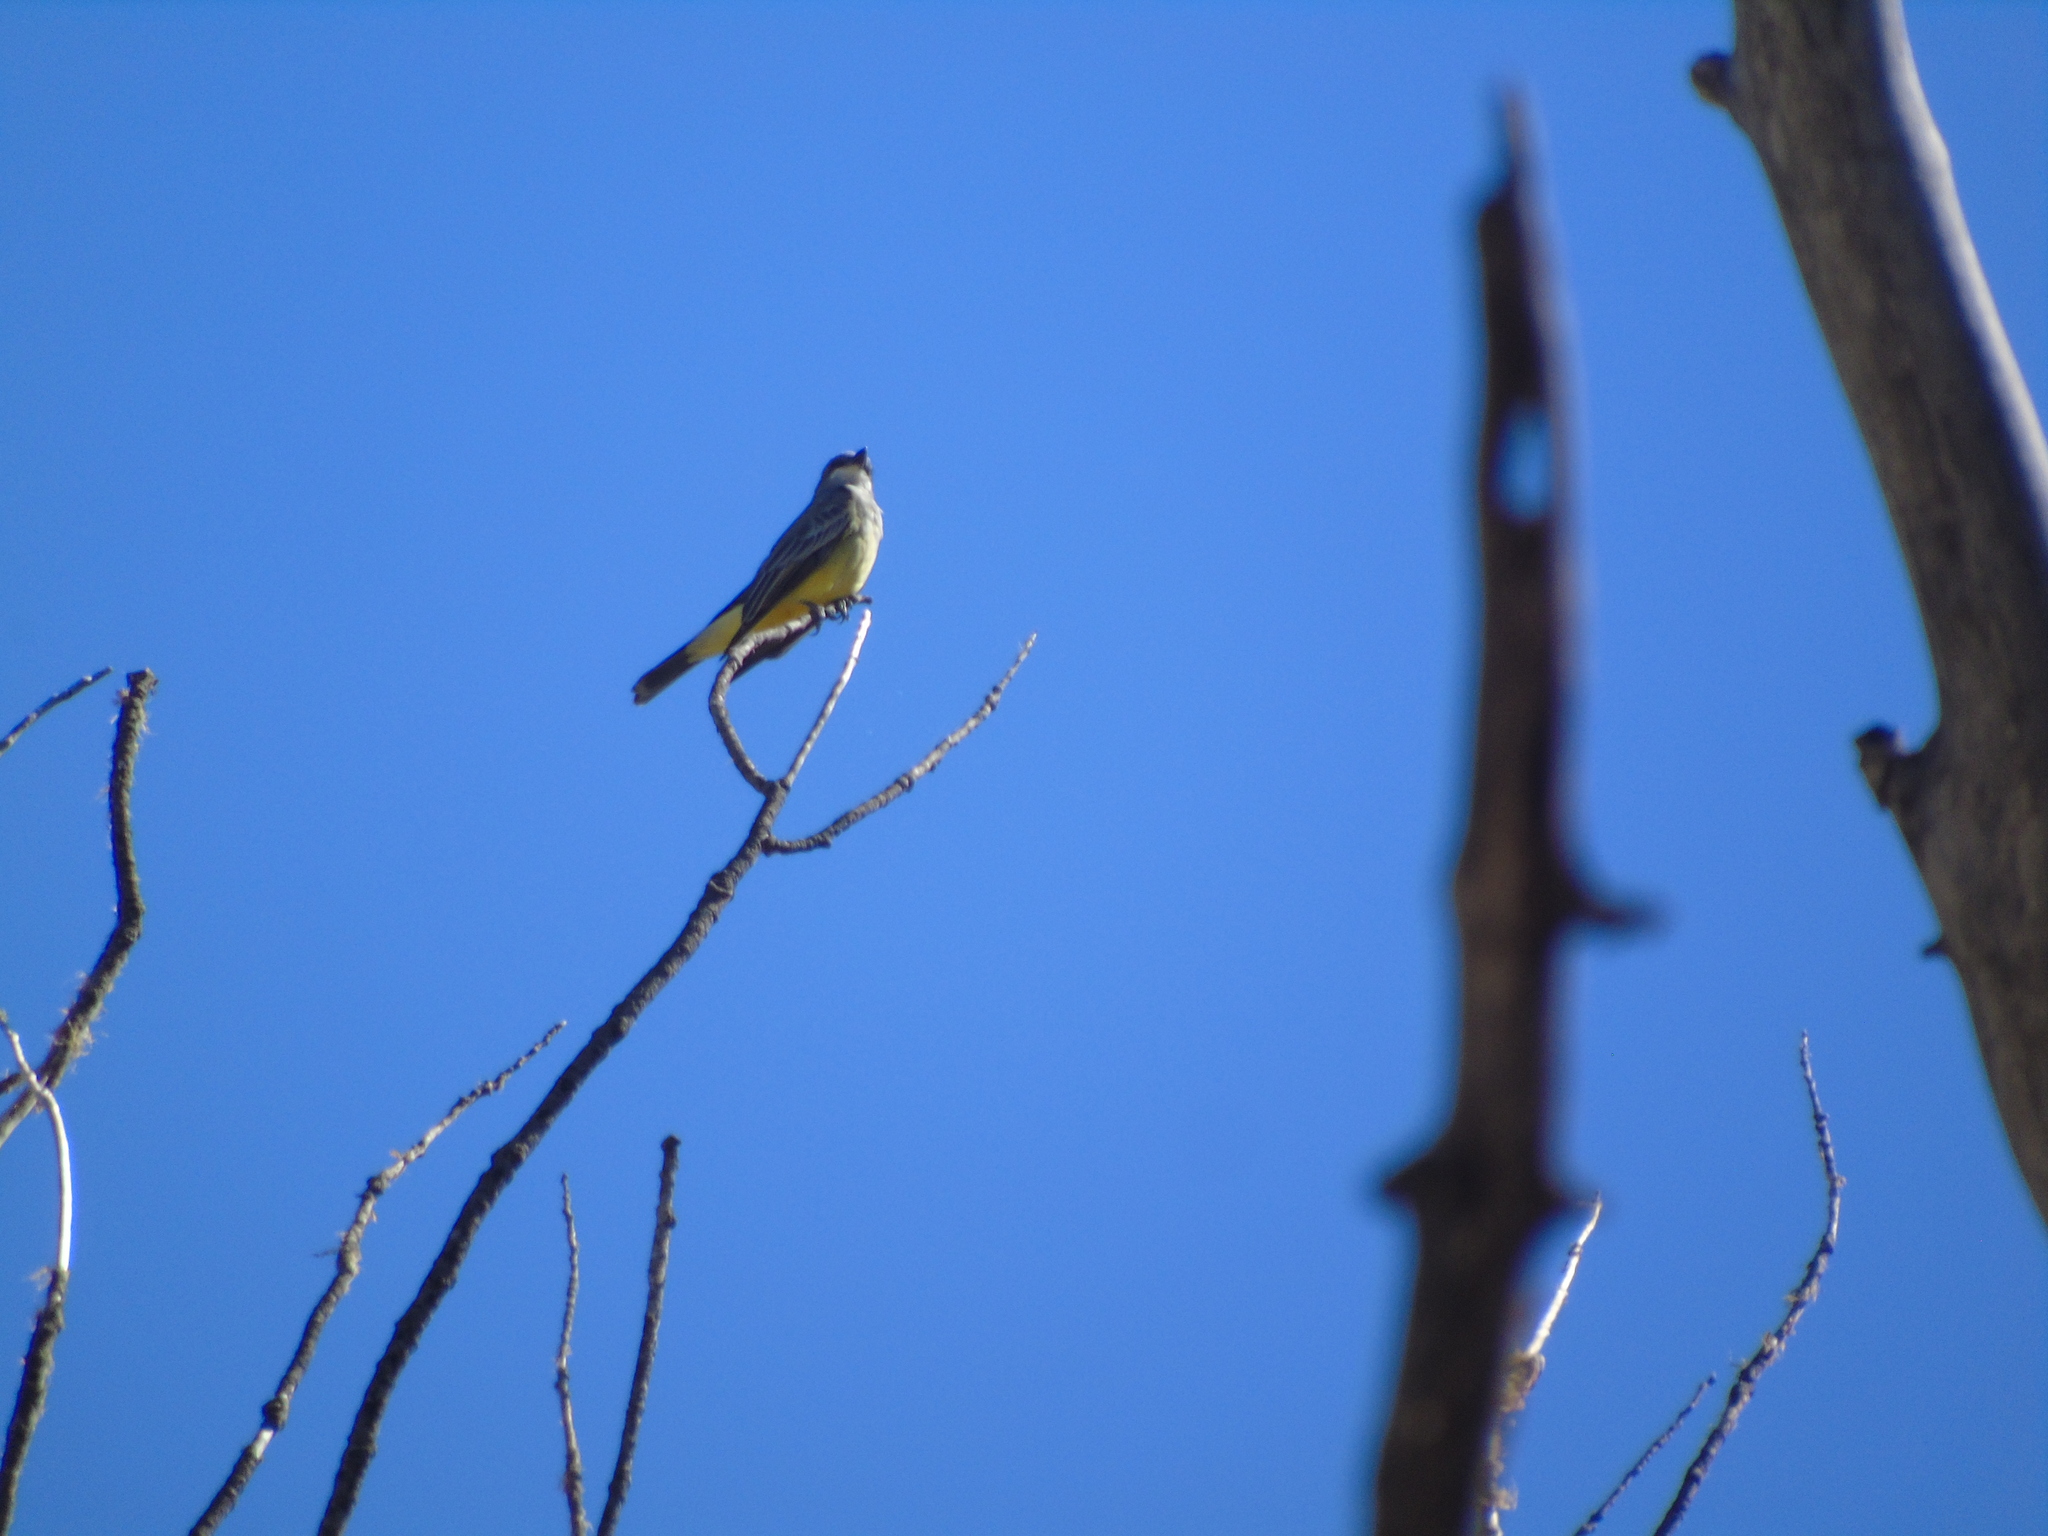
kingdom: Animalia
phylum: Chordata
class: Aves
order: Passeriformes
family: Tyrannidae
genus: Tyrannus
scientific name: Tyrannus vociferans
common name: Cassin's kingbird
